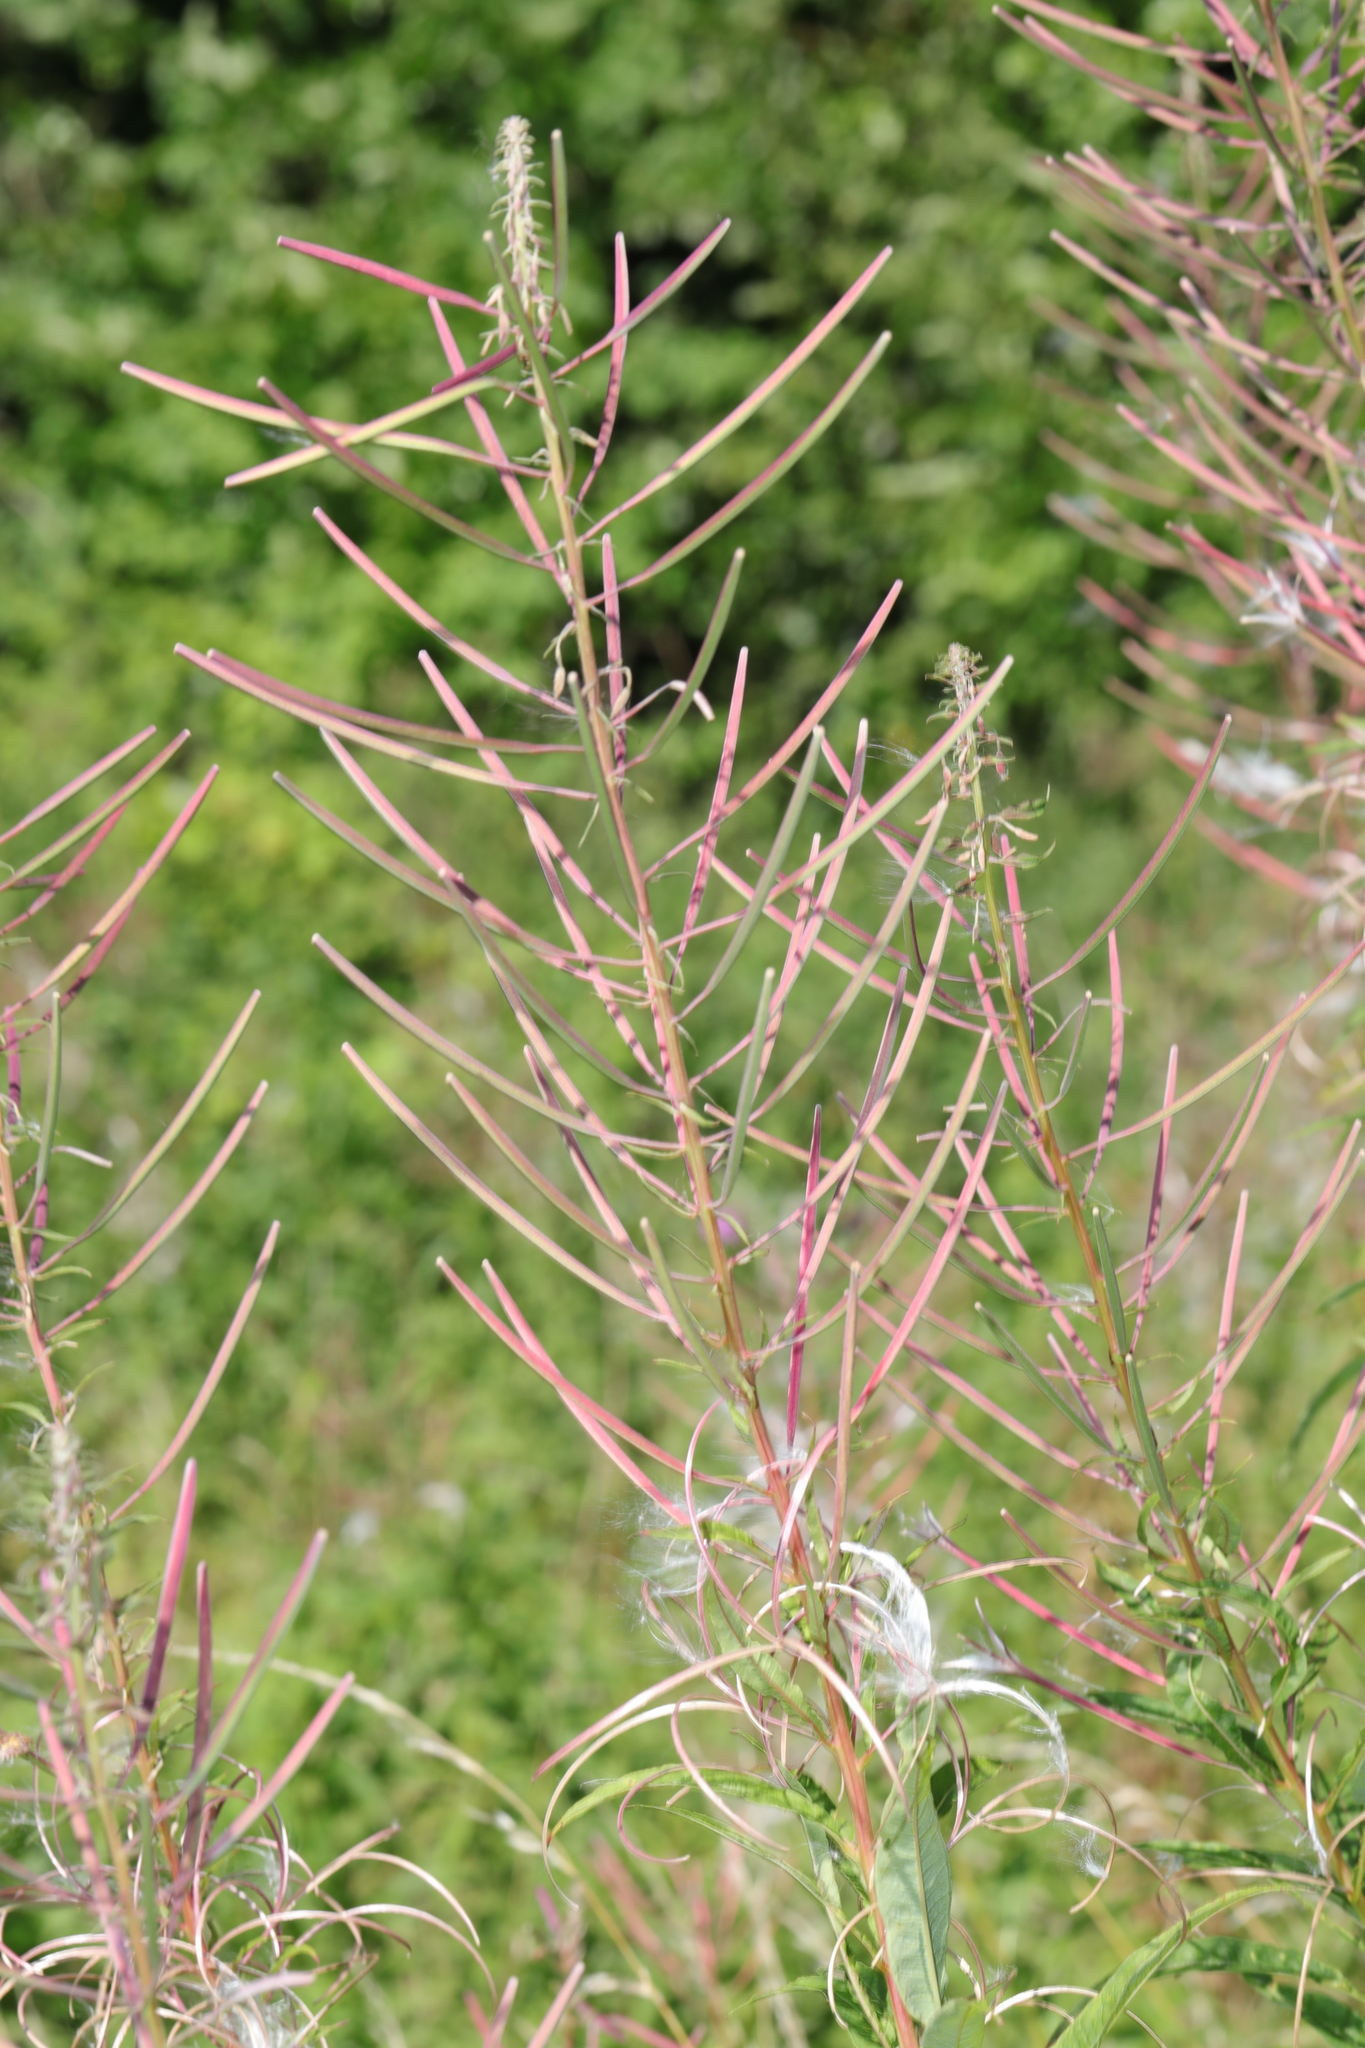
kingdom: Plantae
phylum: Tracheophyta
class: Magnoliopsida
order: Myrtales
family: Onagraceae
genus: Chamaenerion
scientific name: Chamaenerion angustifolium
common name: Fireweed
